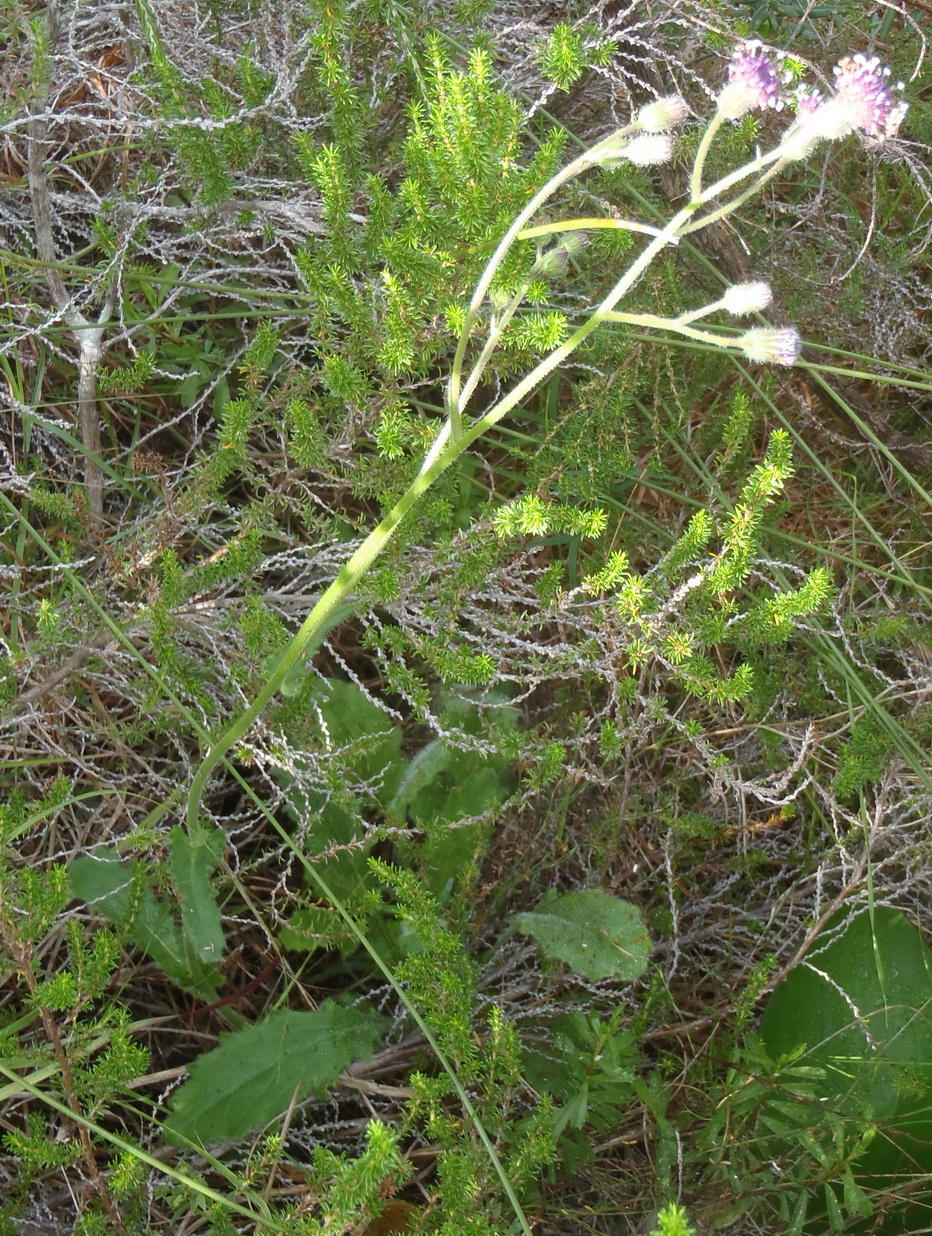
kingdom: Plantae
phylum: Tracheophyta
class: Magnoliopsida
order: Asterales
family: Asteraceae
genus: Senecio
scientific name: Senecio erubescens
